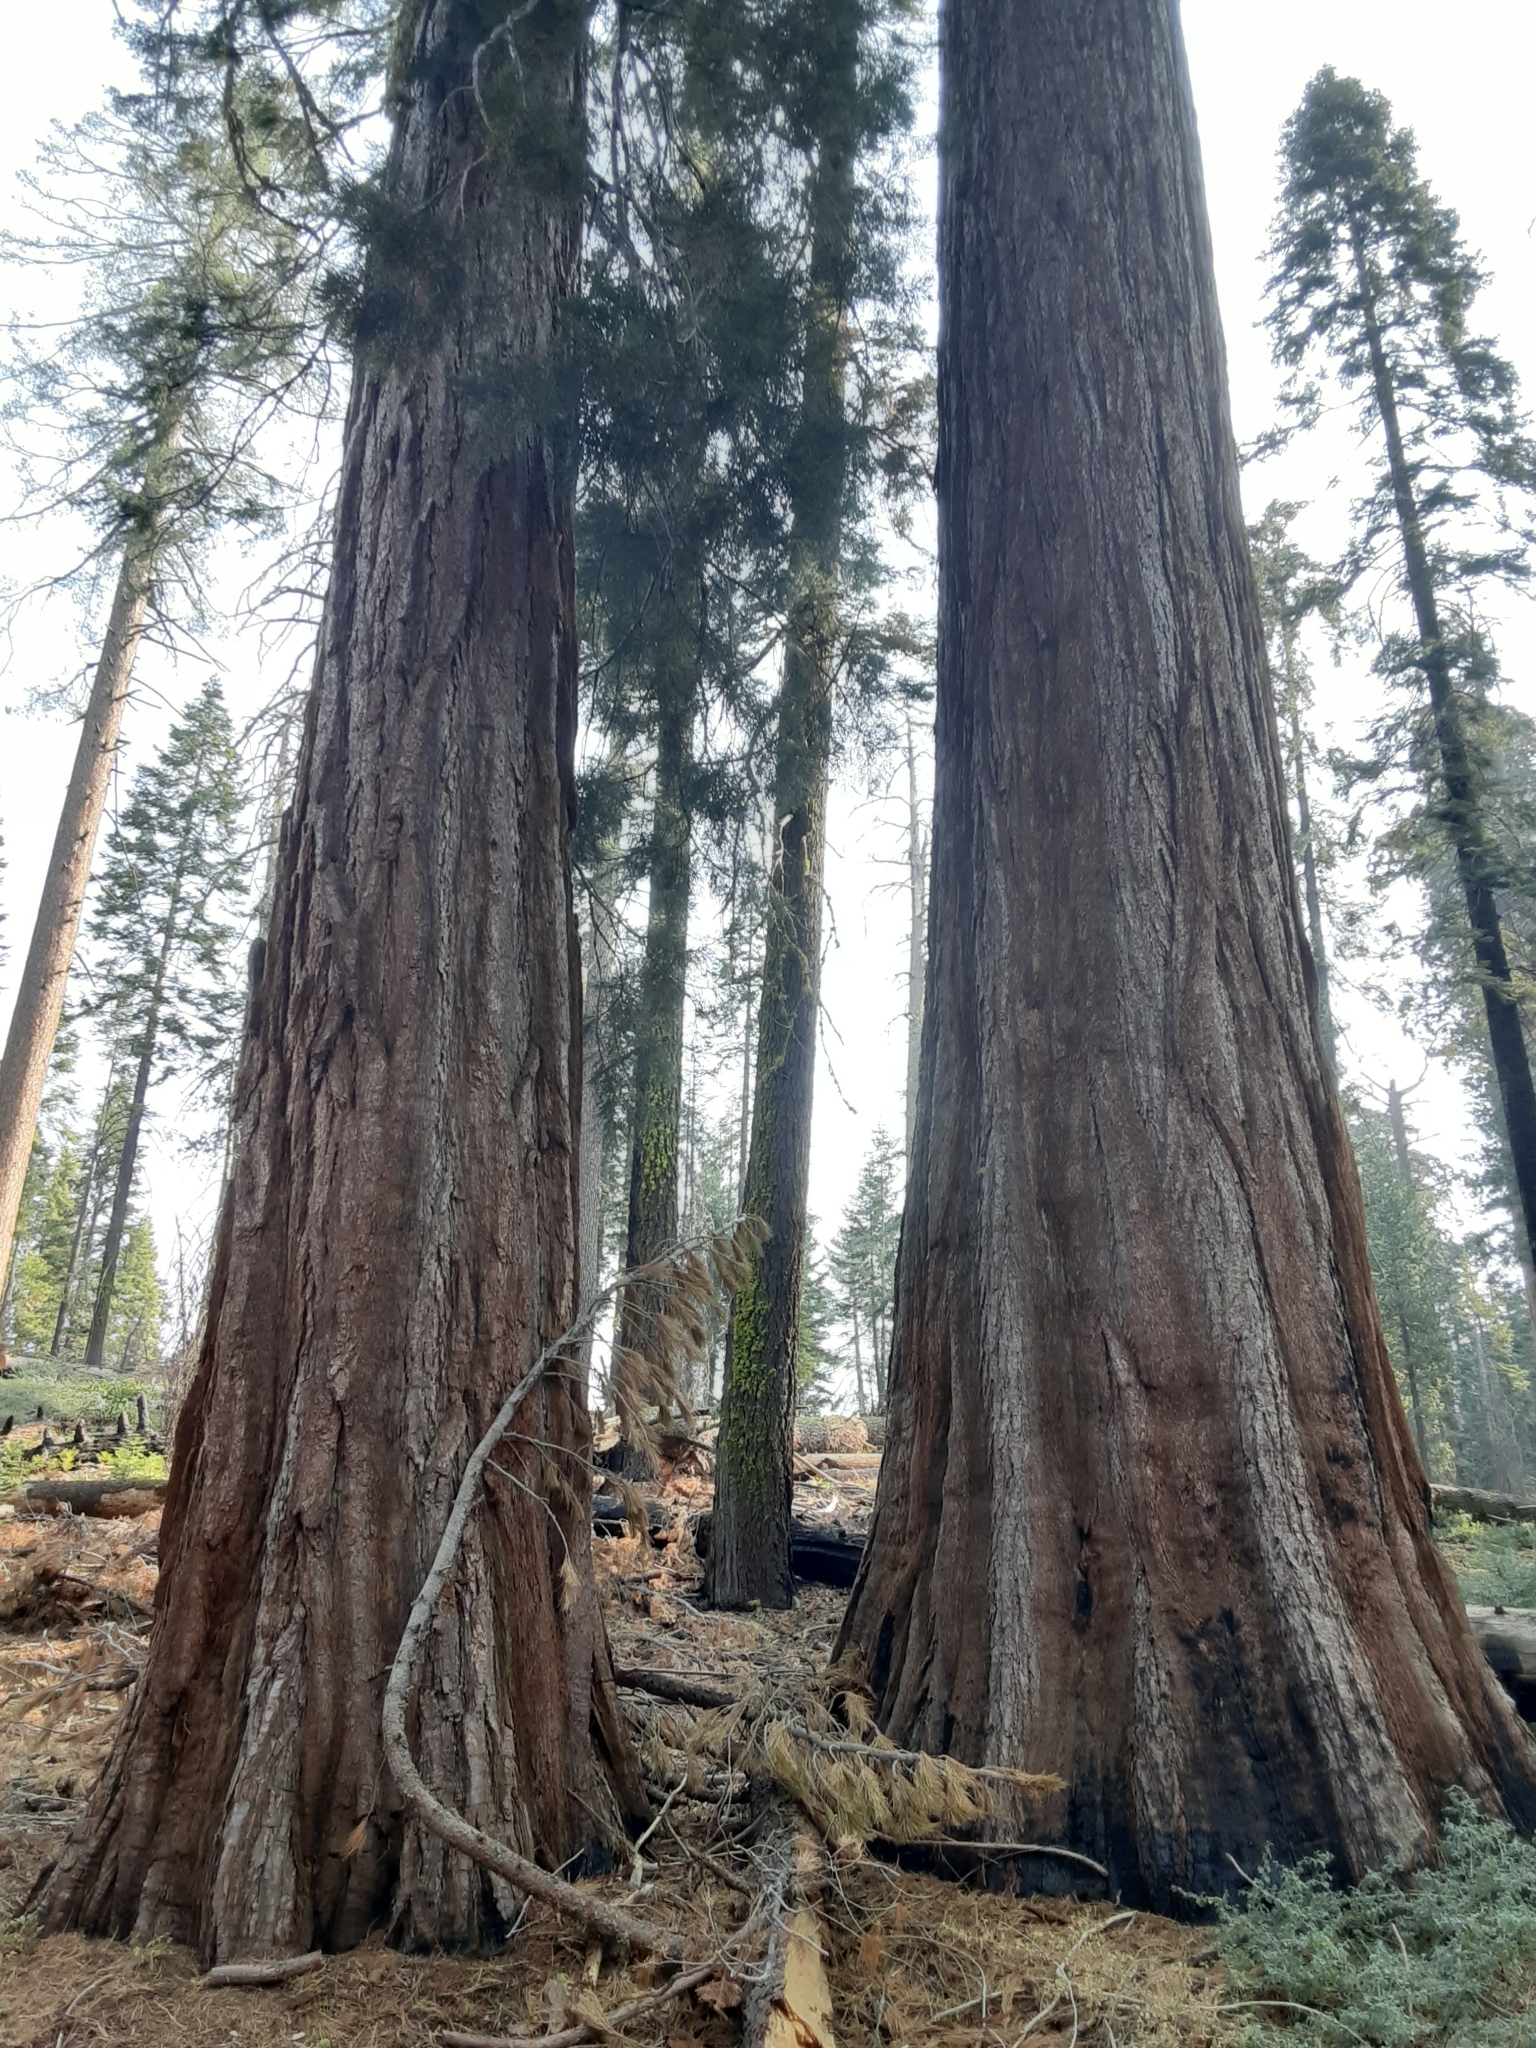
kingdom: Plantae
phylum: Tracheophyta
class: Pinopsida
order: Pinales
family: Cupressaceae
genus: Sequoiadendron
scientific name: Sequoiadendron giganteum
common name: Wellingtonia
